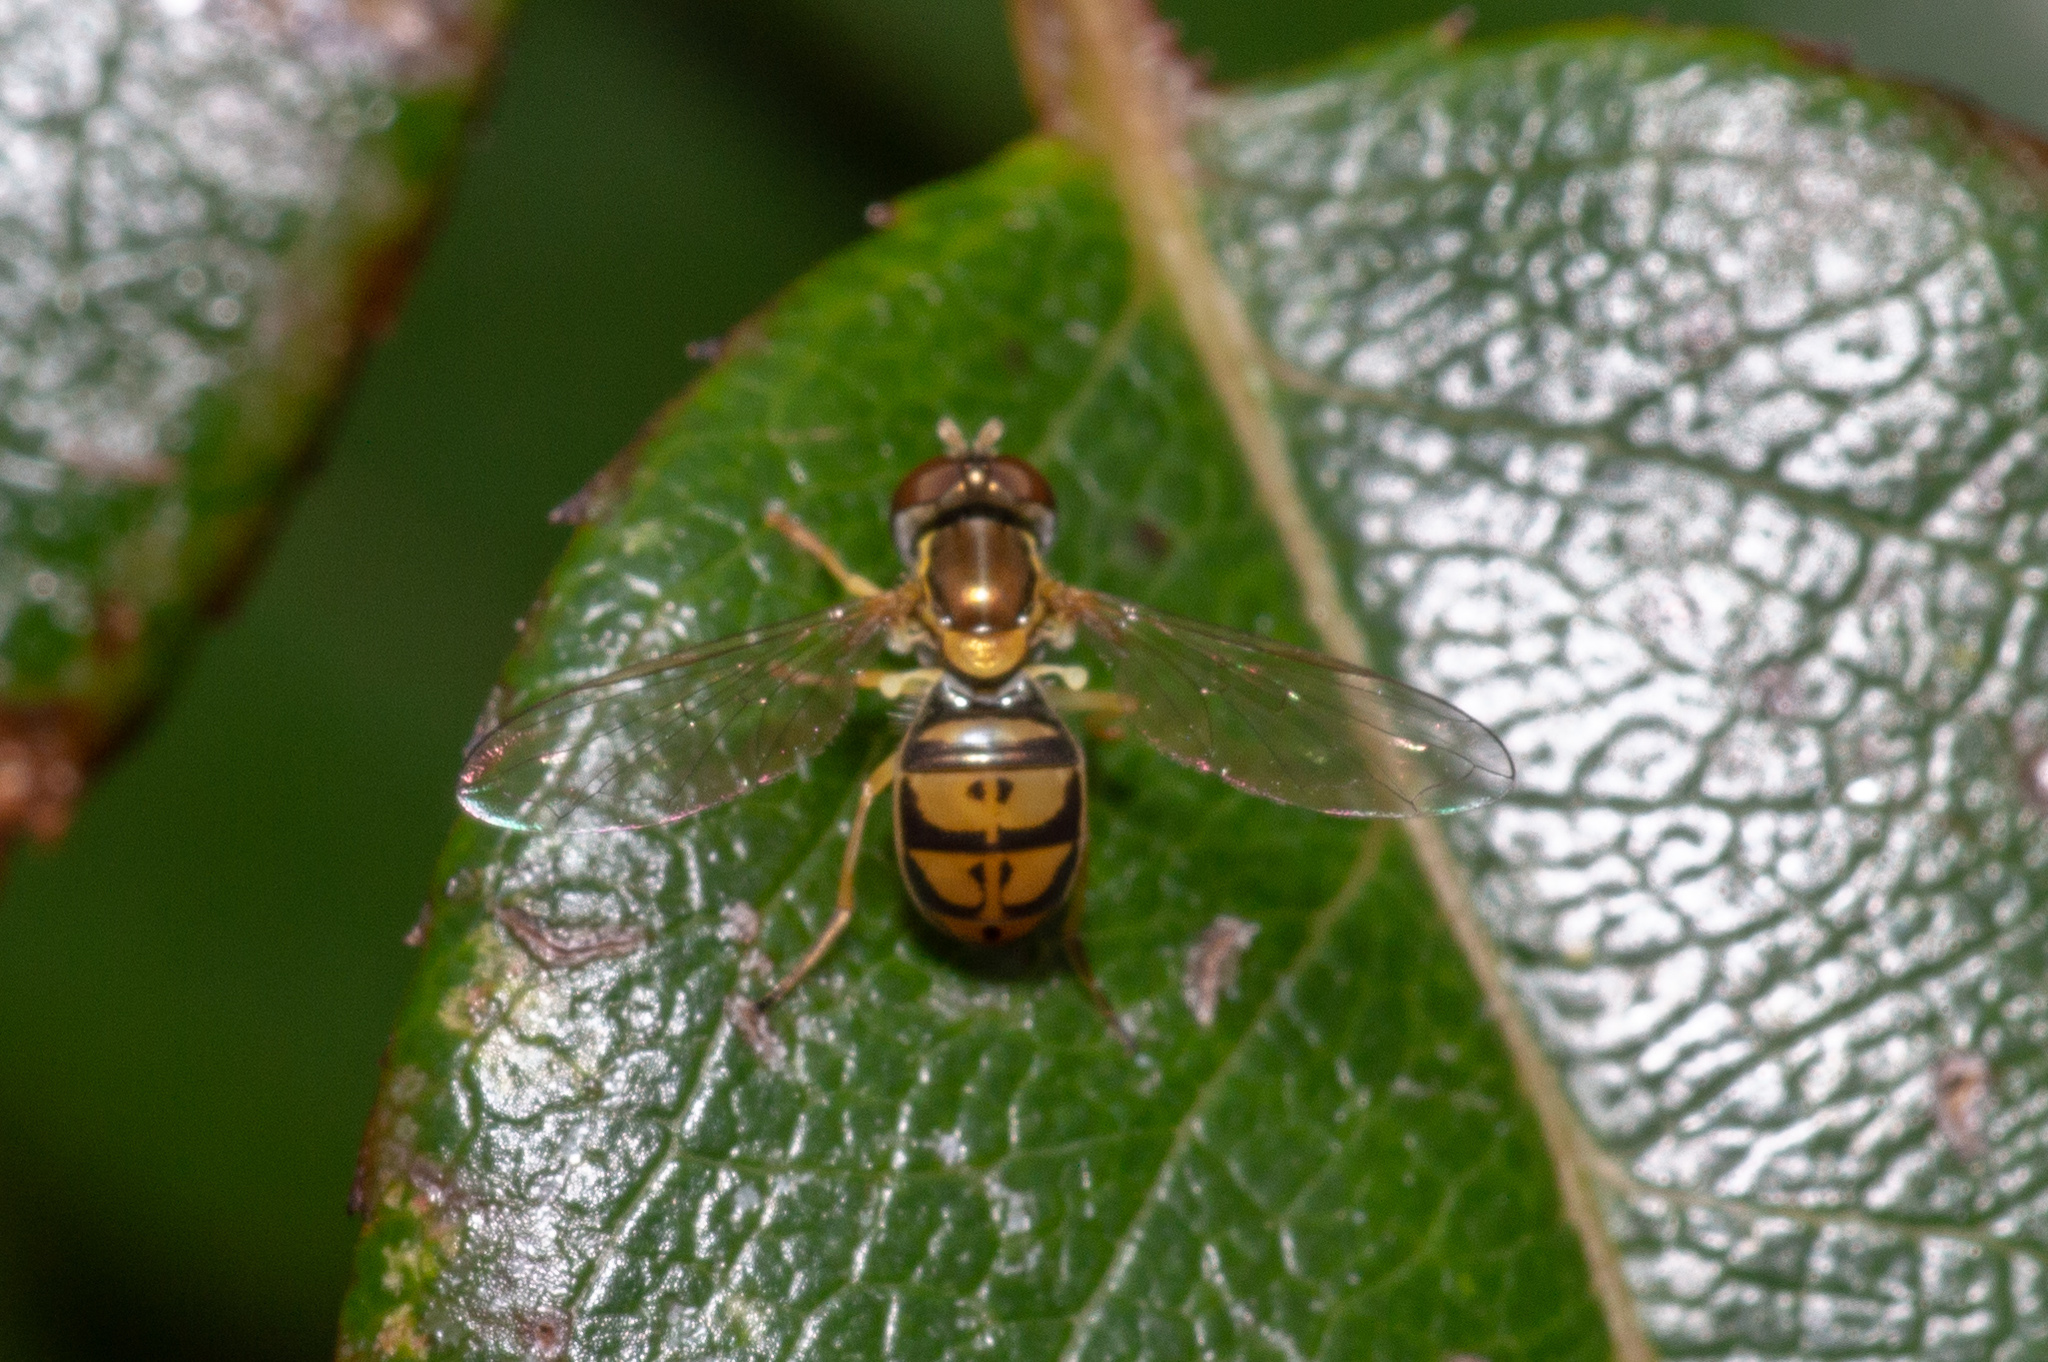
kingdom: Animalia
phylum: Arthropoda
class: Insecta
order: Diptera
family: Syrphidae
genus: Toxomerus
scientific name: Toxomerus marginatus
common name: Syrphid fly
